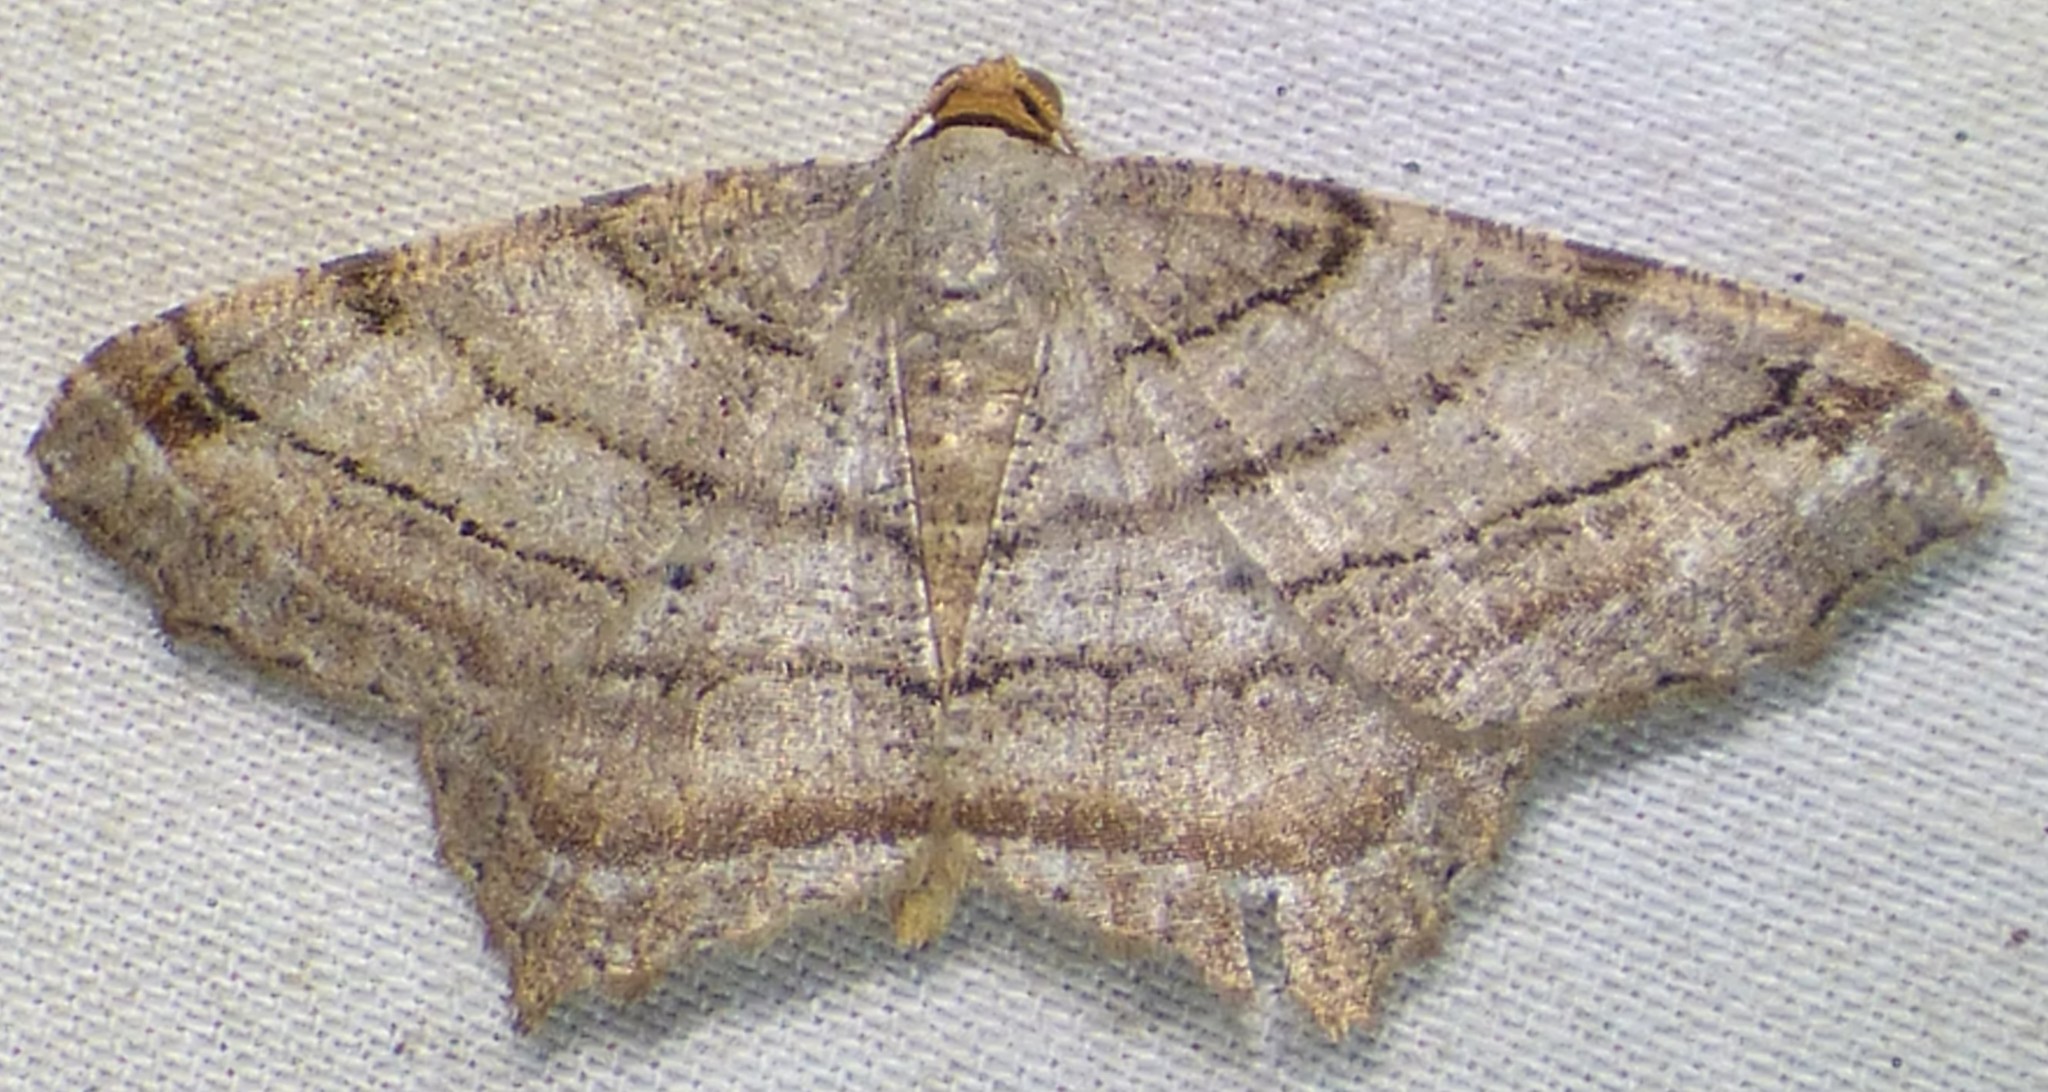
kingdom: Animalia
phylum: Arthropoda
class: Insecta
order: Lepidoptera
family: Geometridae
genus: Macaria
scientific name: Macaria multilineata
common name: Many-lined angle
